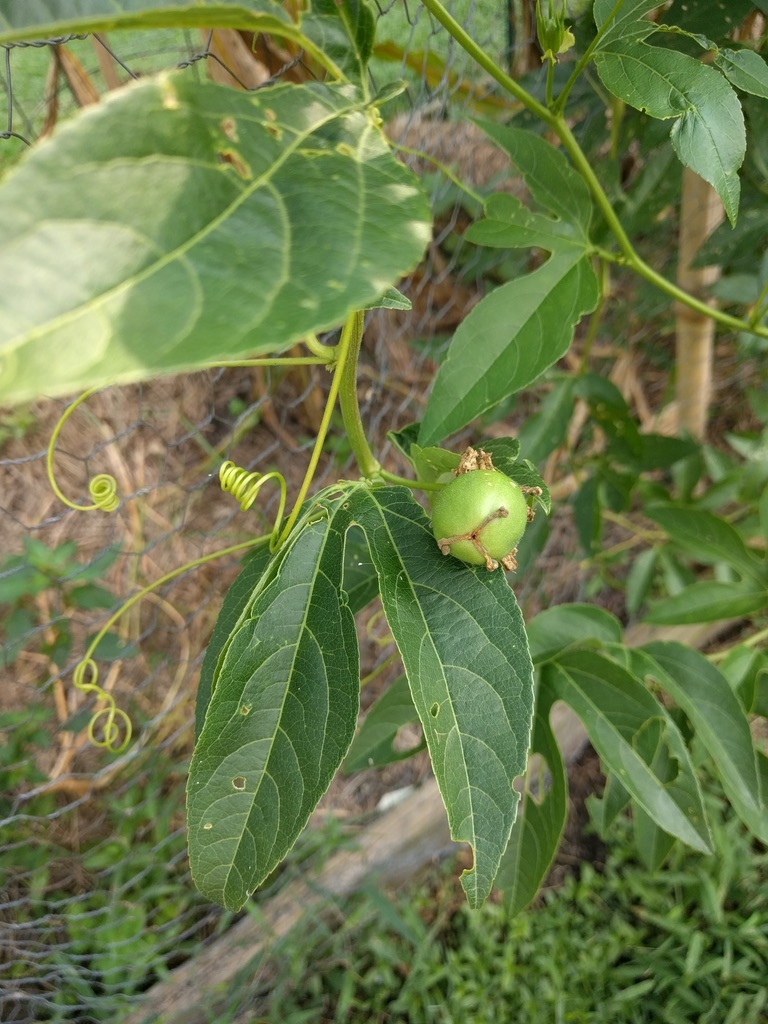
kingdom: Plantae
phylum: Tracheophyta
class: Magnoliopsida
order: Malpighiales
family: Passifloraceae
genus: Passiflora
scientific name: Passiflora incarnata
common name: Apricot-vine
